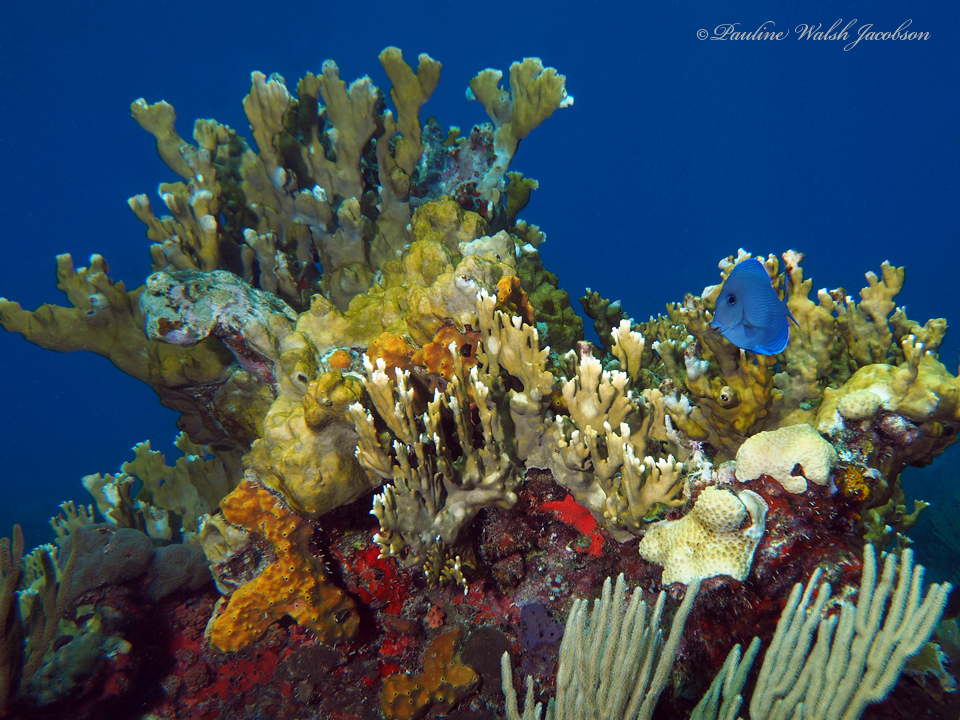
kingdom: Animalia
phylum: Chordata
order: Perciformes
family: Acanthuridae
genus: Acanthurus
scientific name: Acanthurus coeruleus
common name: Blue tang
